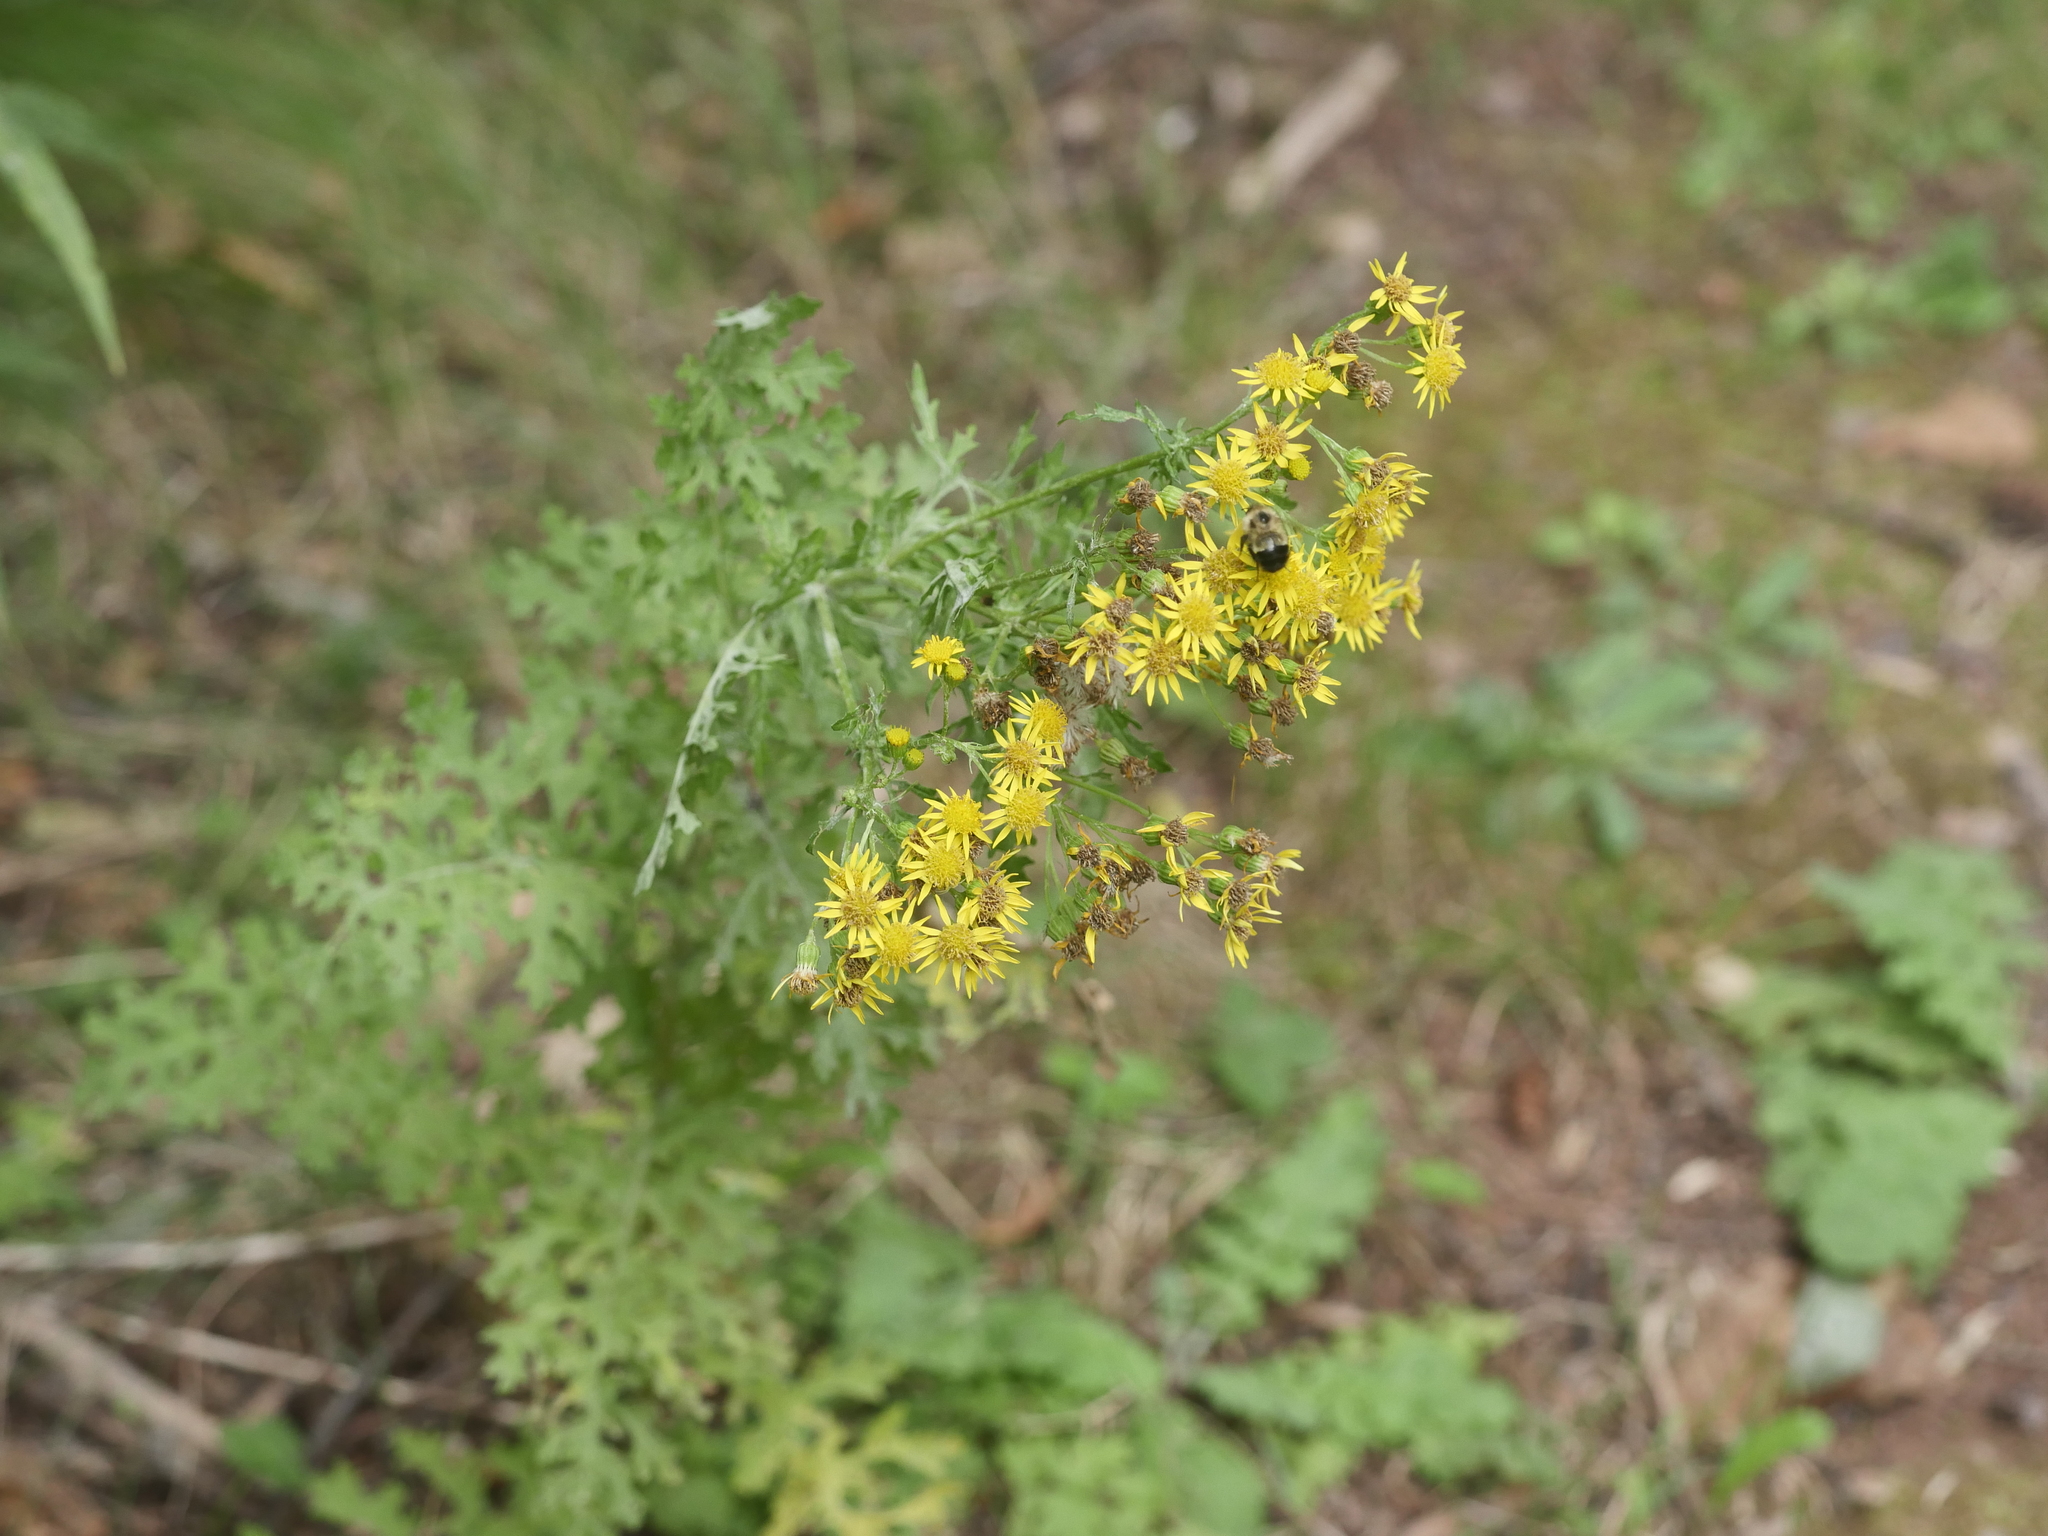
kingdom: Plantae
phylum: Tracheophyta
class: Magnoliopsida
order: Asterales
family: Asteraceae
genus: Jacobaea
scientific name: Jacobaea vulgaris
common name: Stinking willie
